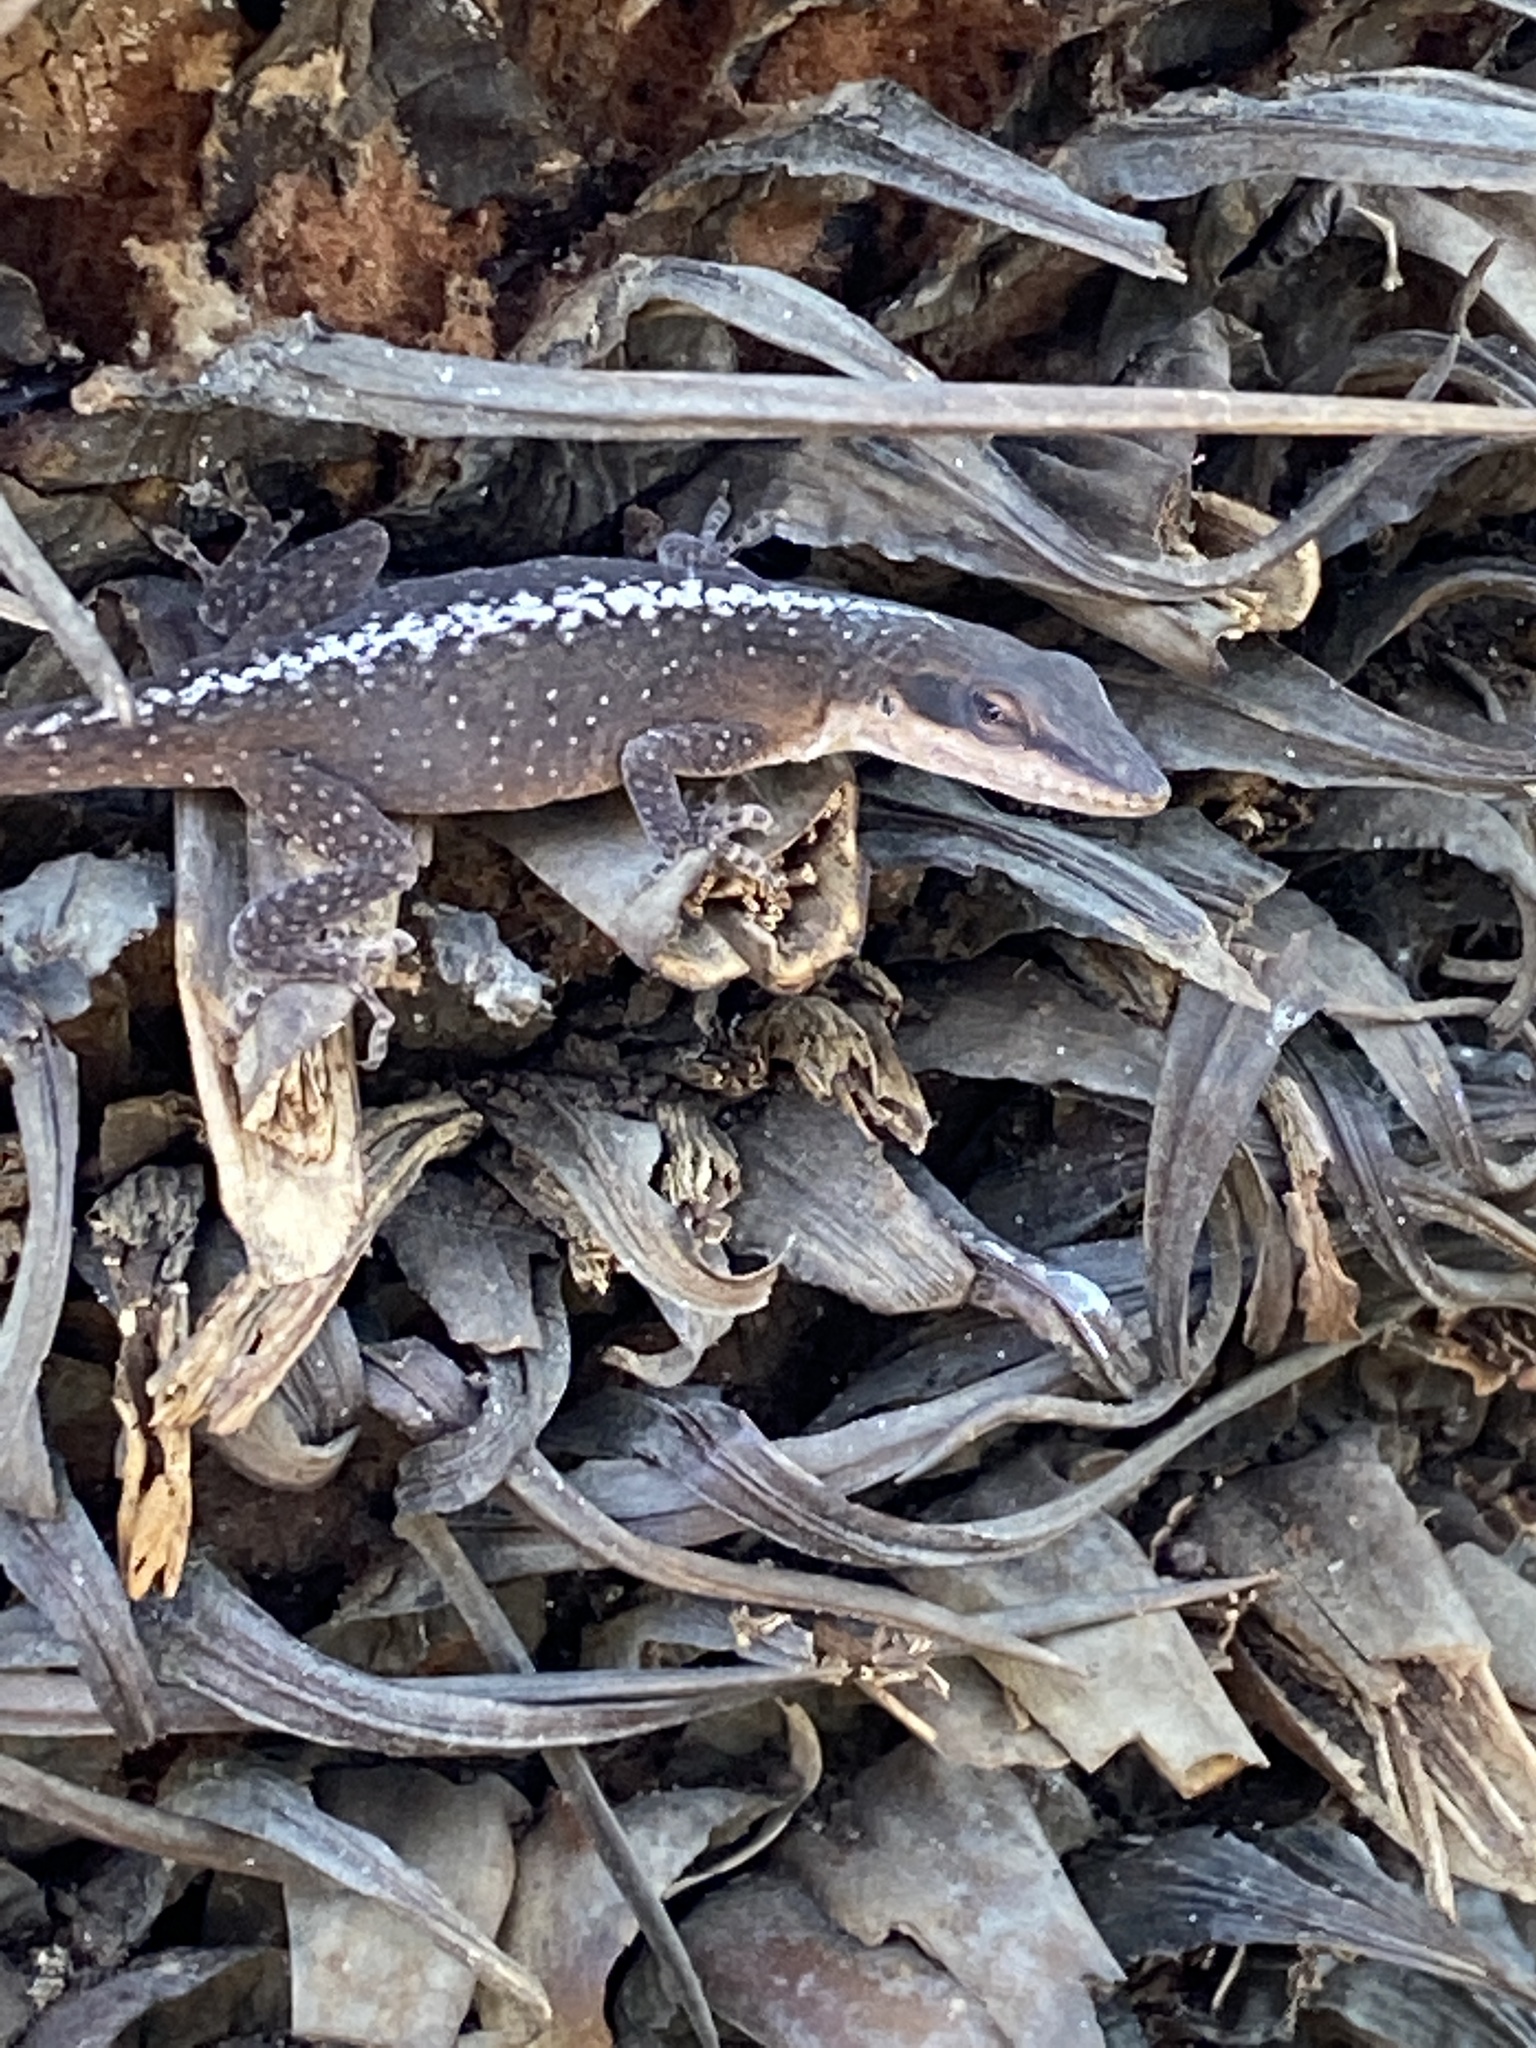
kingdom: Animalia
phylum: Chordata
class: Squamata
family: Dactyloidae
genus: Anolis
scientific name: Anolis carolinensis
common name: Green anole
